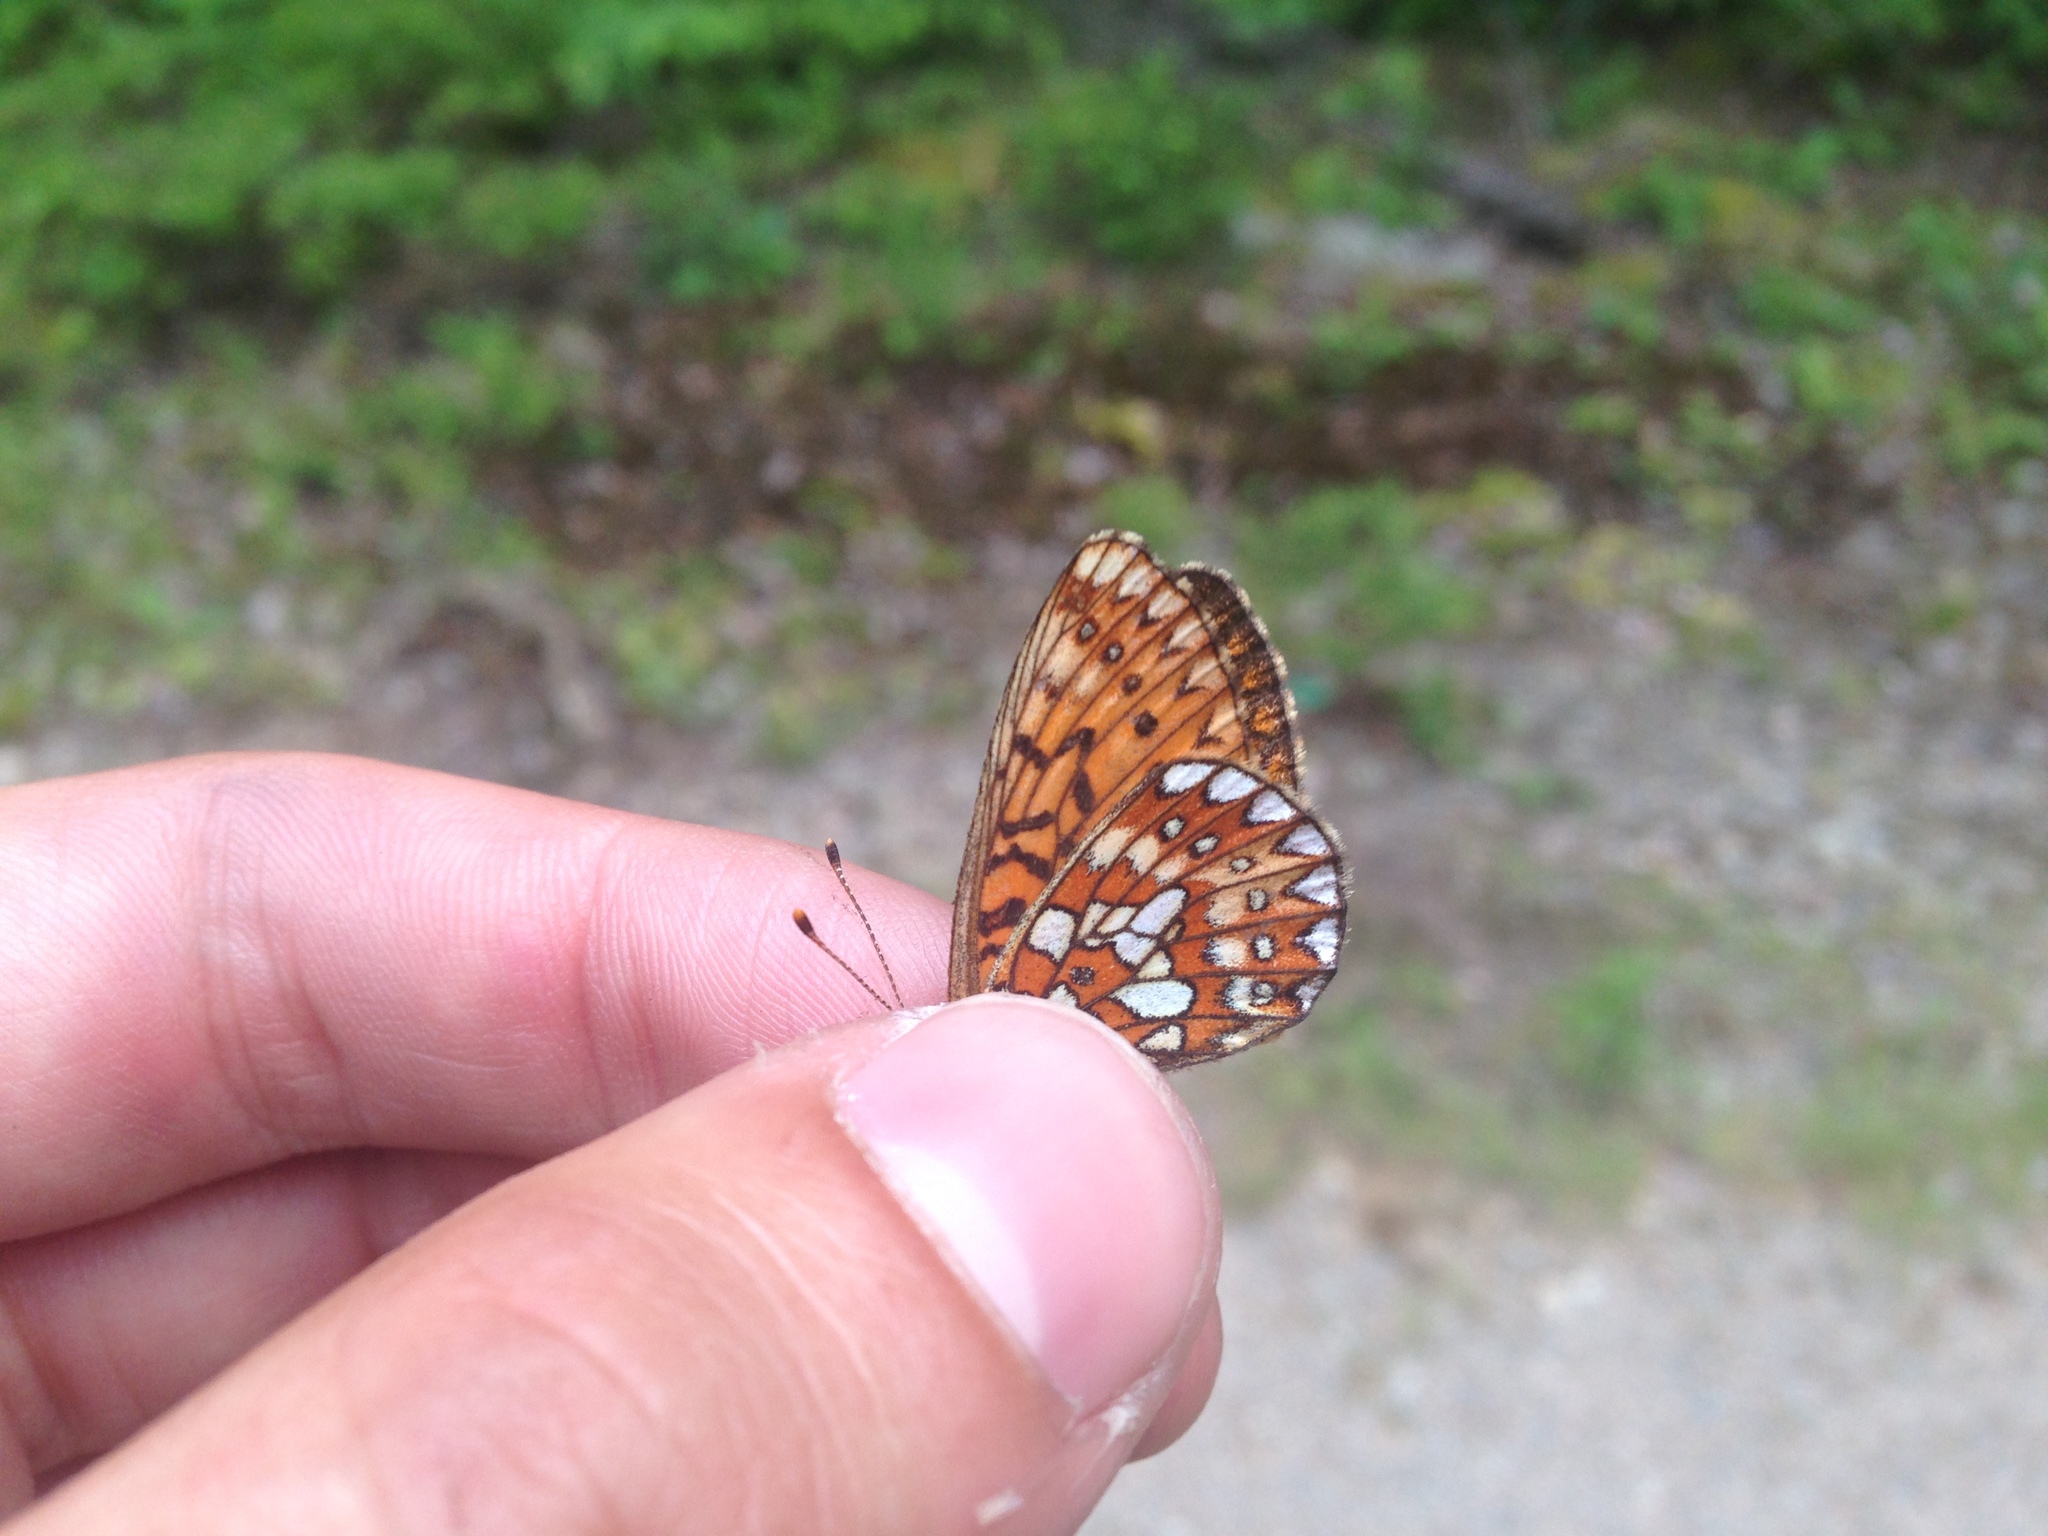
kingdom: Animalia
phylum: Arthropoda
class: Insecta
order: Lepidoptera
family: Nymphalidae
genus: Boloria
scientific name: Boloria eunomia
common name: Bog fritillary
